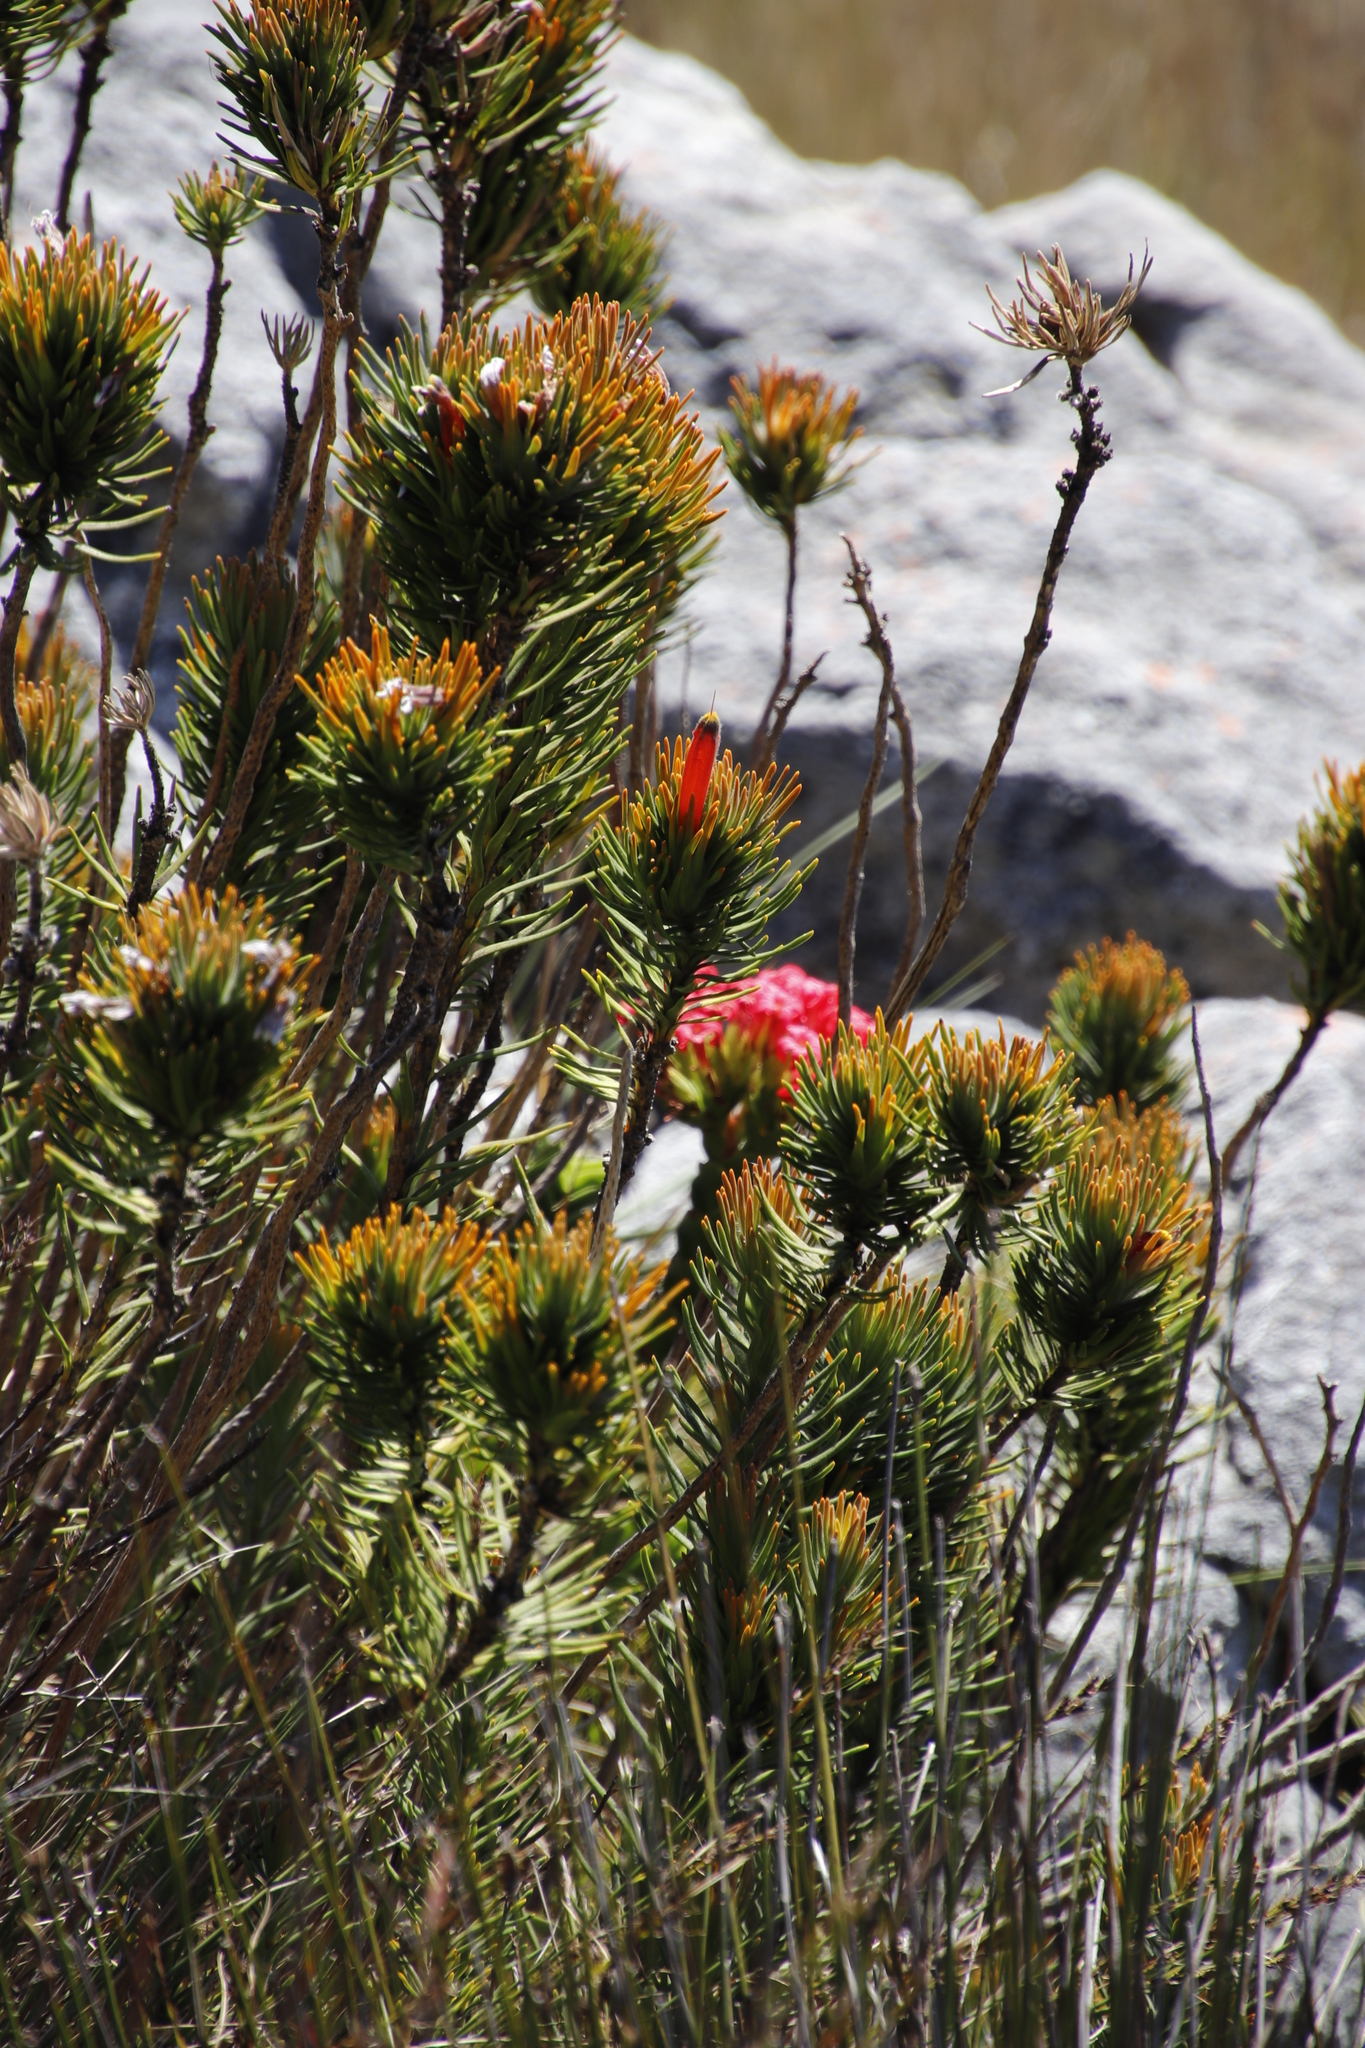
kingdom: Plantae
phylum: Tracheophyta
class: Magnoliopsida
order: Lamiales
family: Stilbaceae
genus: Retzia
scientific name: Retzia capensis
